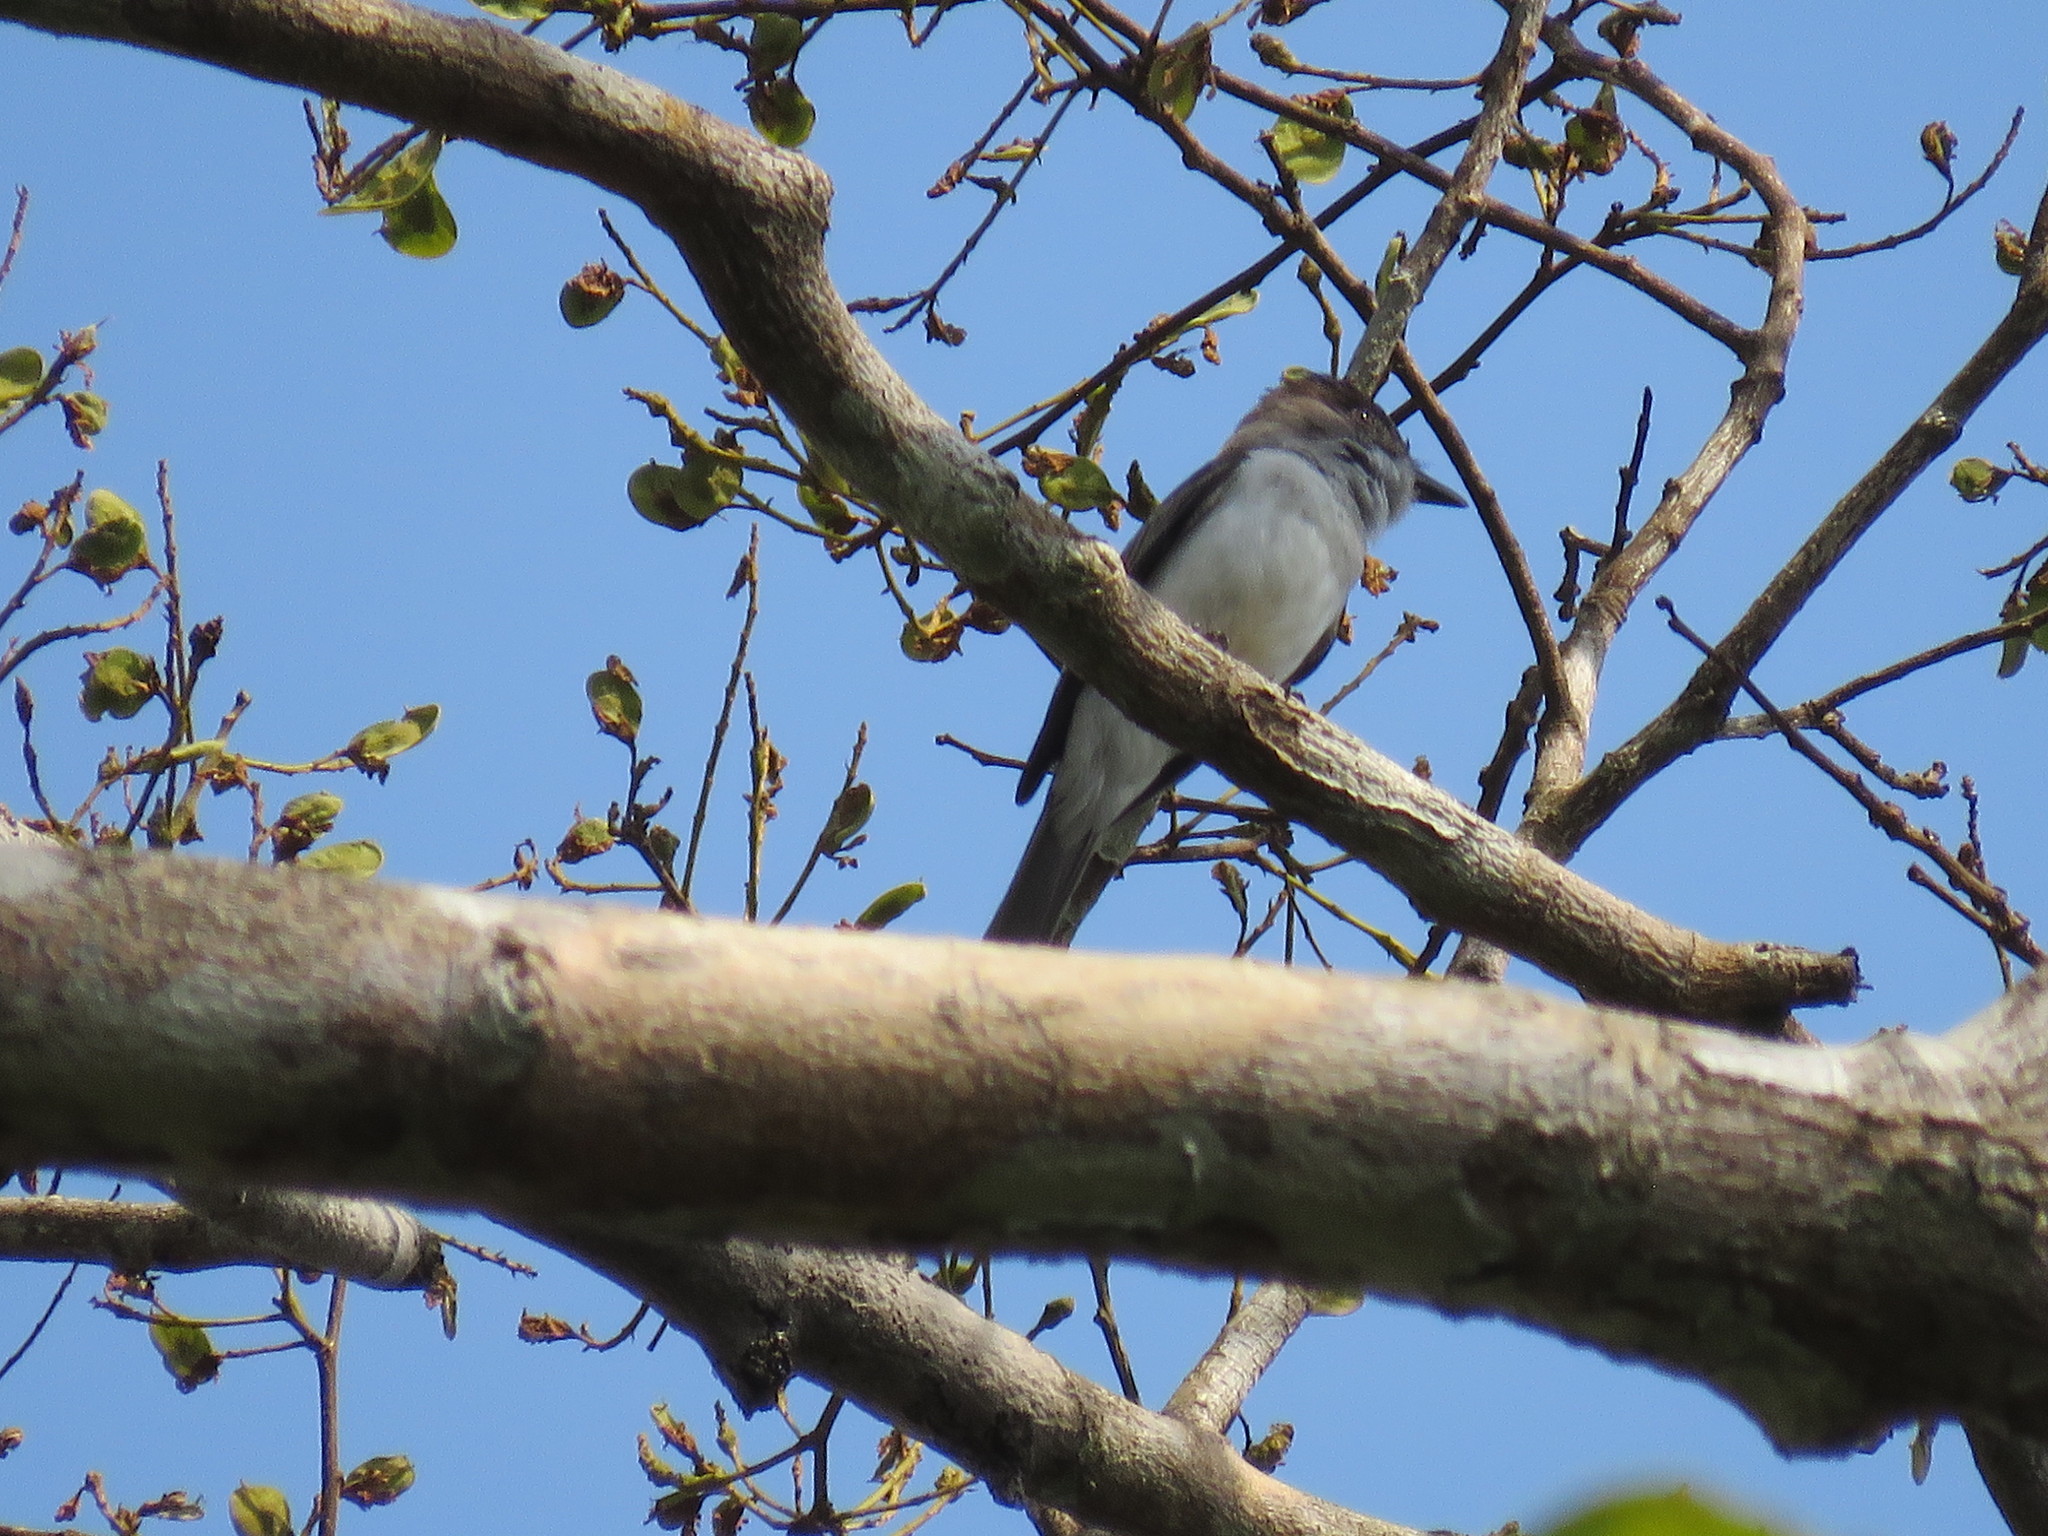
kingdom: Animalia
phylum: Chordata
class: Aves
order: Passeriformes
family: Tyrannidae
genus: Sirystes
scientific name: Sirystes albocinereus
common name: White-rumped sirystes
